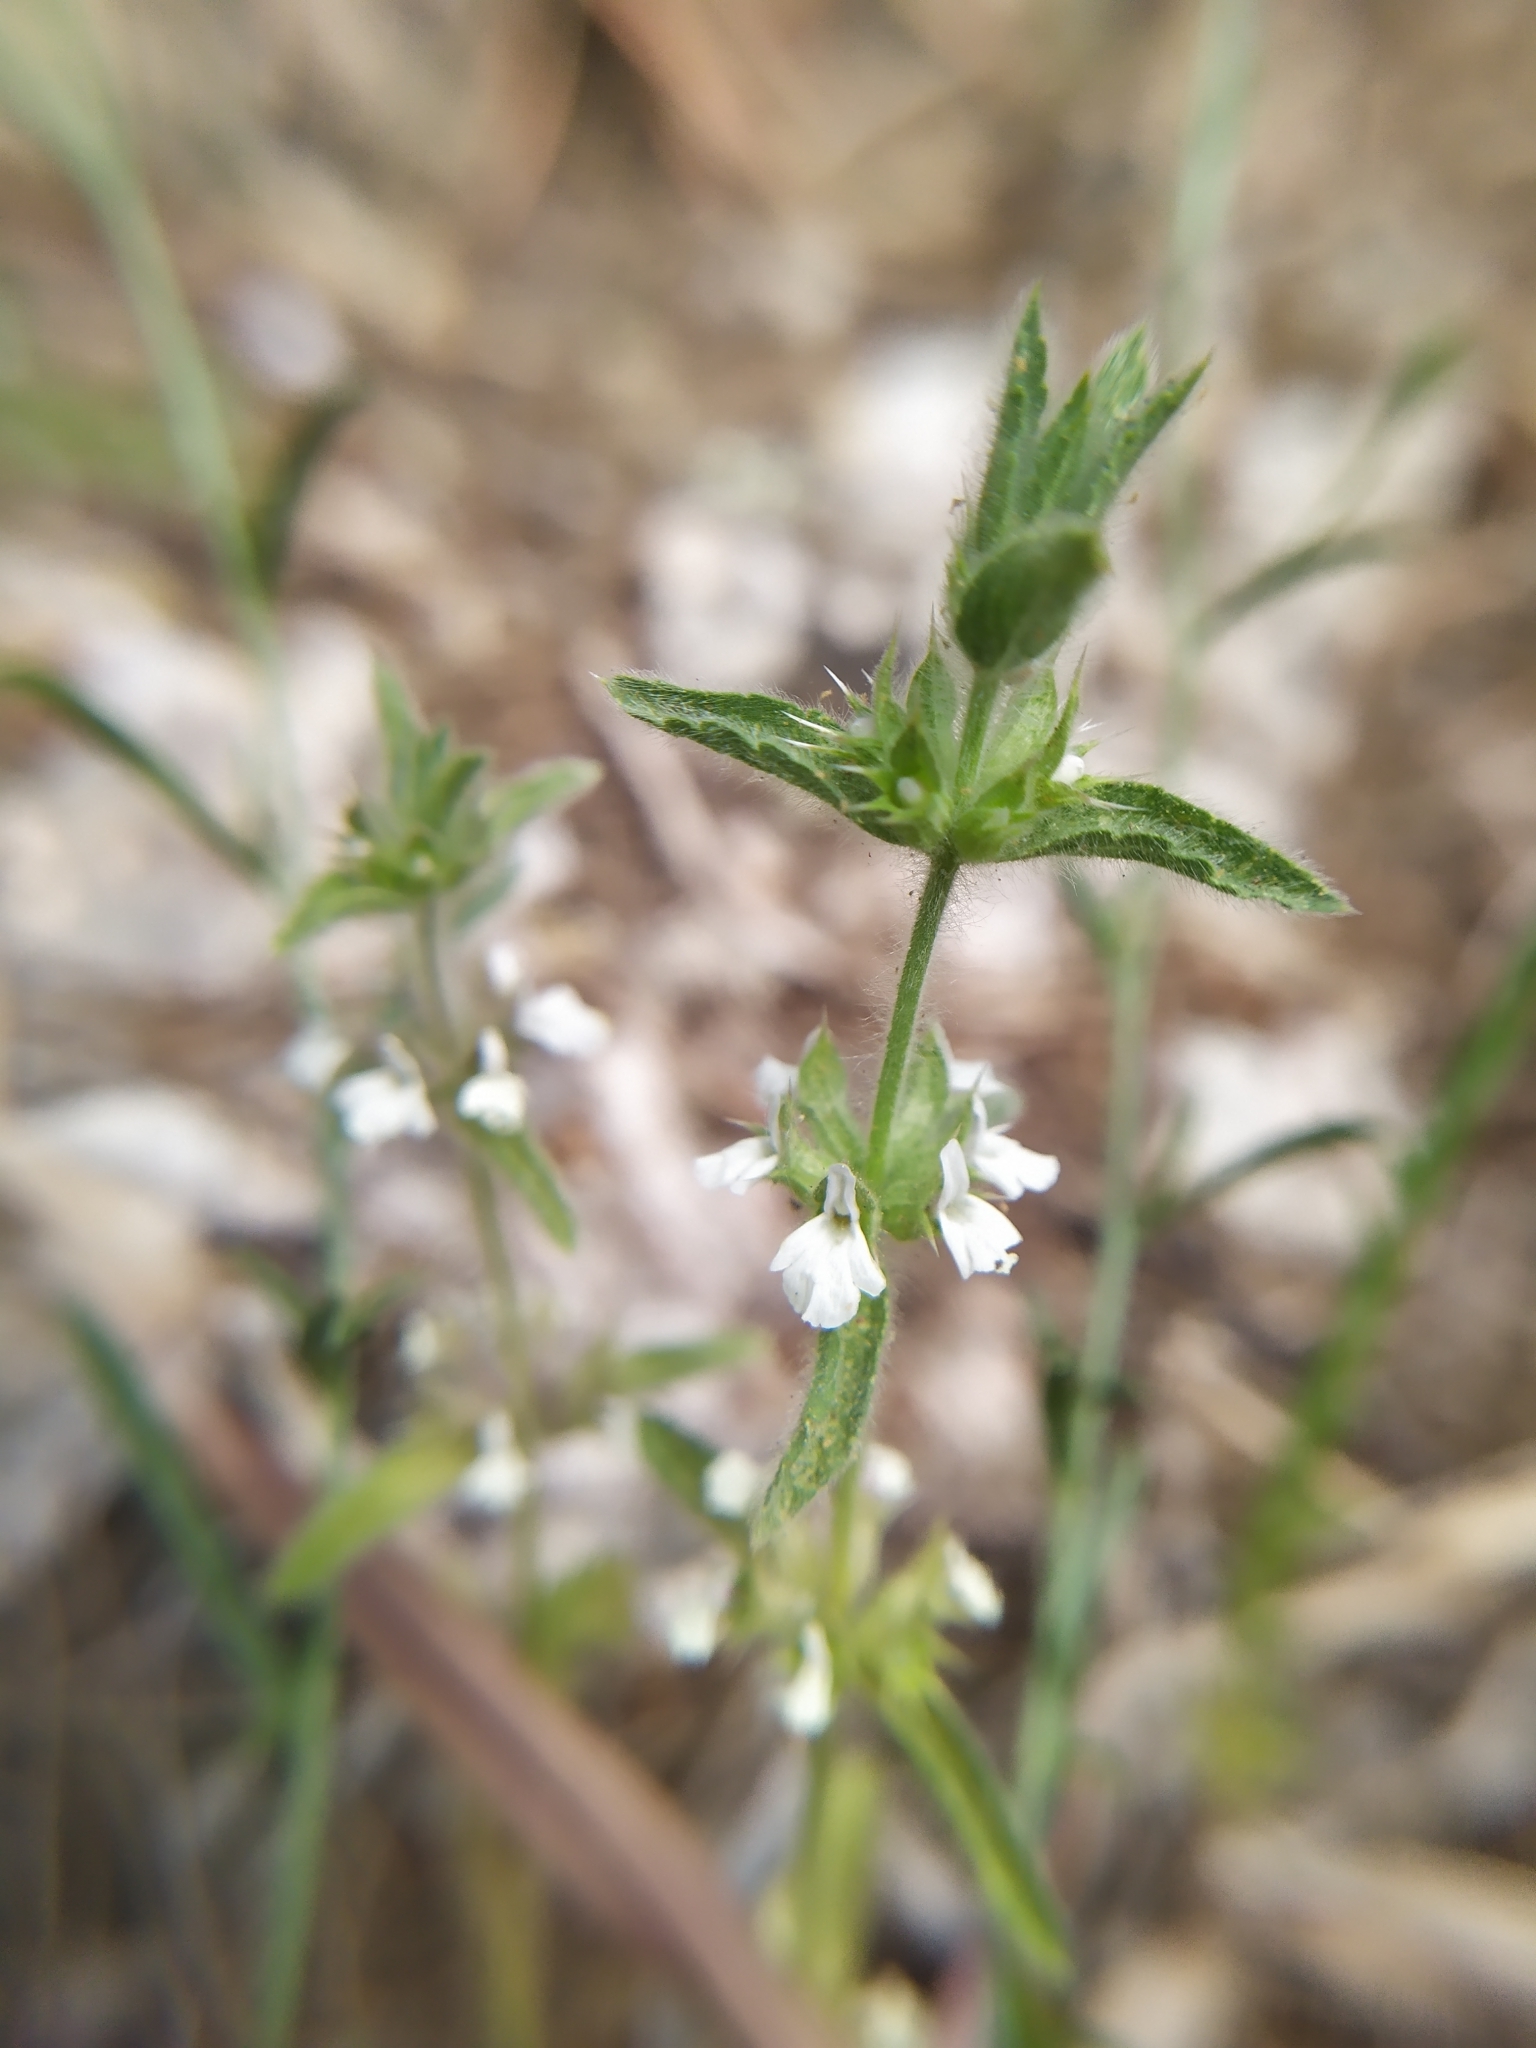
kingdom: Plantae
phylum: Tracheophyta
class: Magnoliopsida
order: Lamiales
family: Lamiaceae
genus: Sideritis
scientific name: Sideritis romana
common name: Simplebeak ironwort
